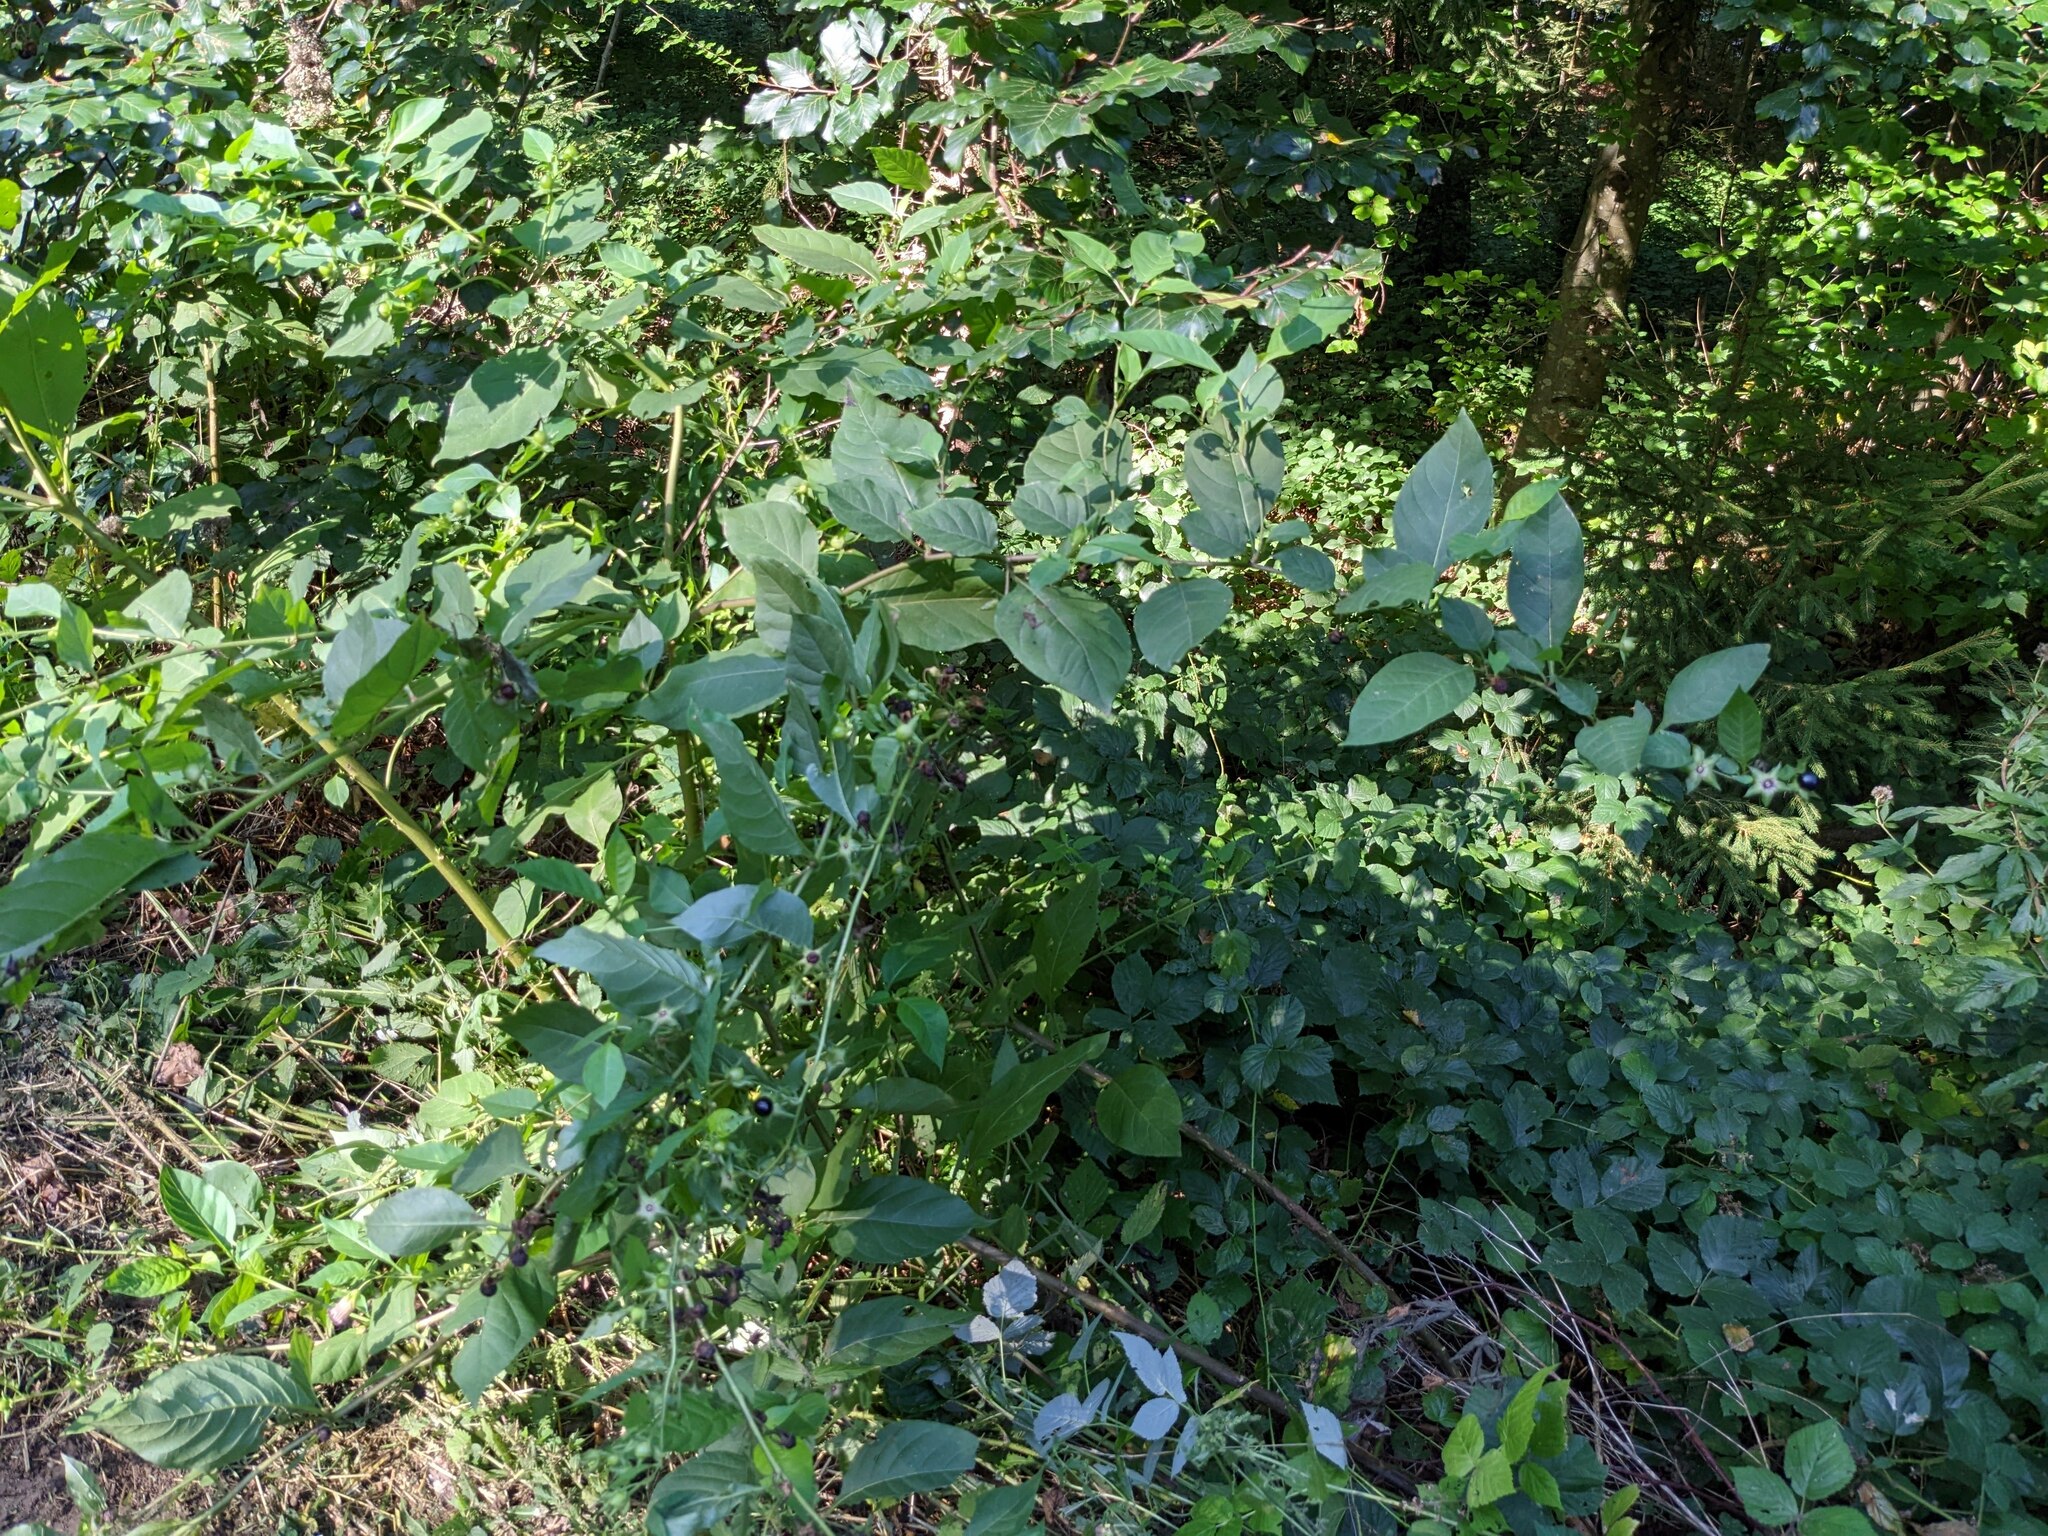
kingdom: Plantae
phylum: Tracheophyta
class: Magnoliopsida
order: Solanales
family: Solanaceae
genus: Atropa
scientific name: Atropa belladonna
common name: Deadly nightshade
